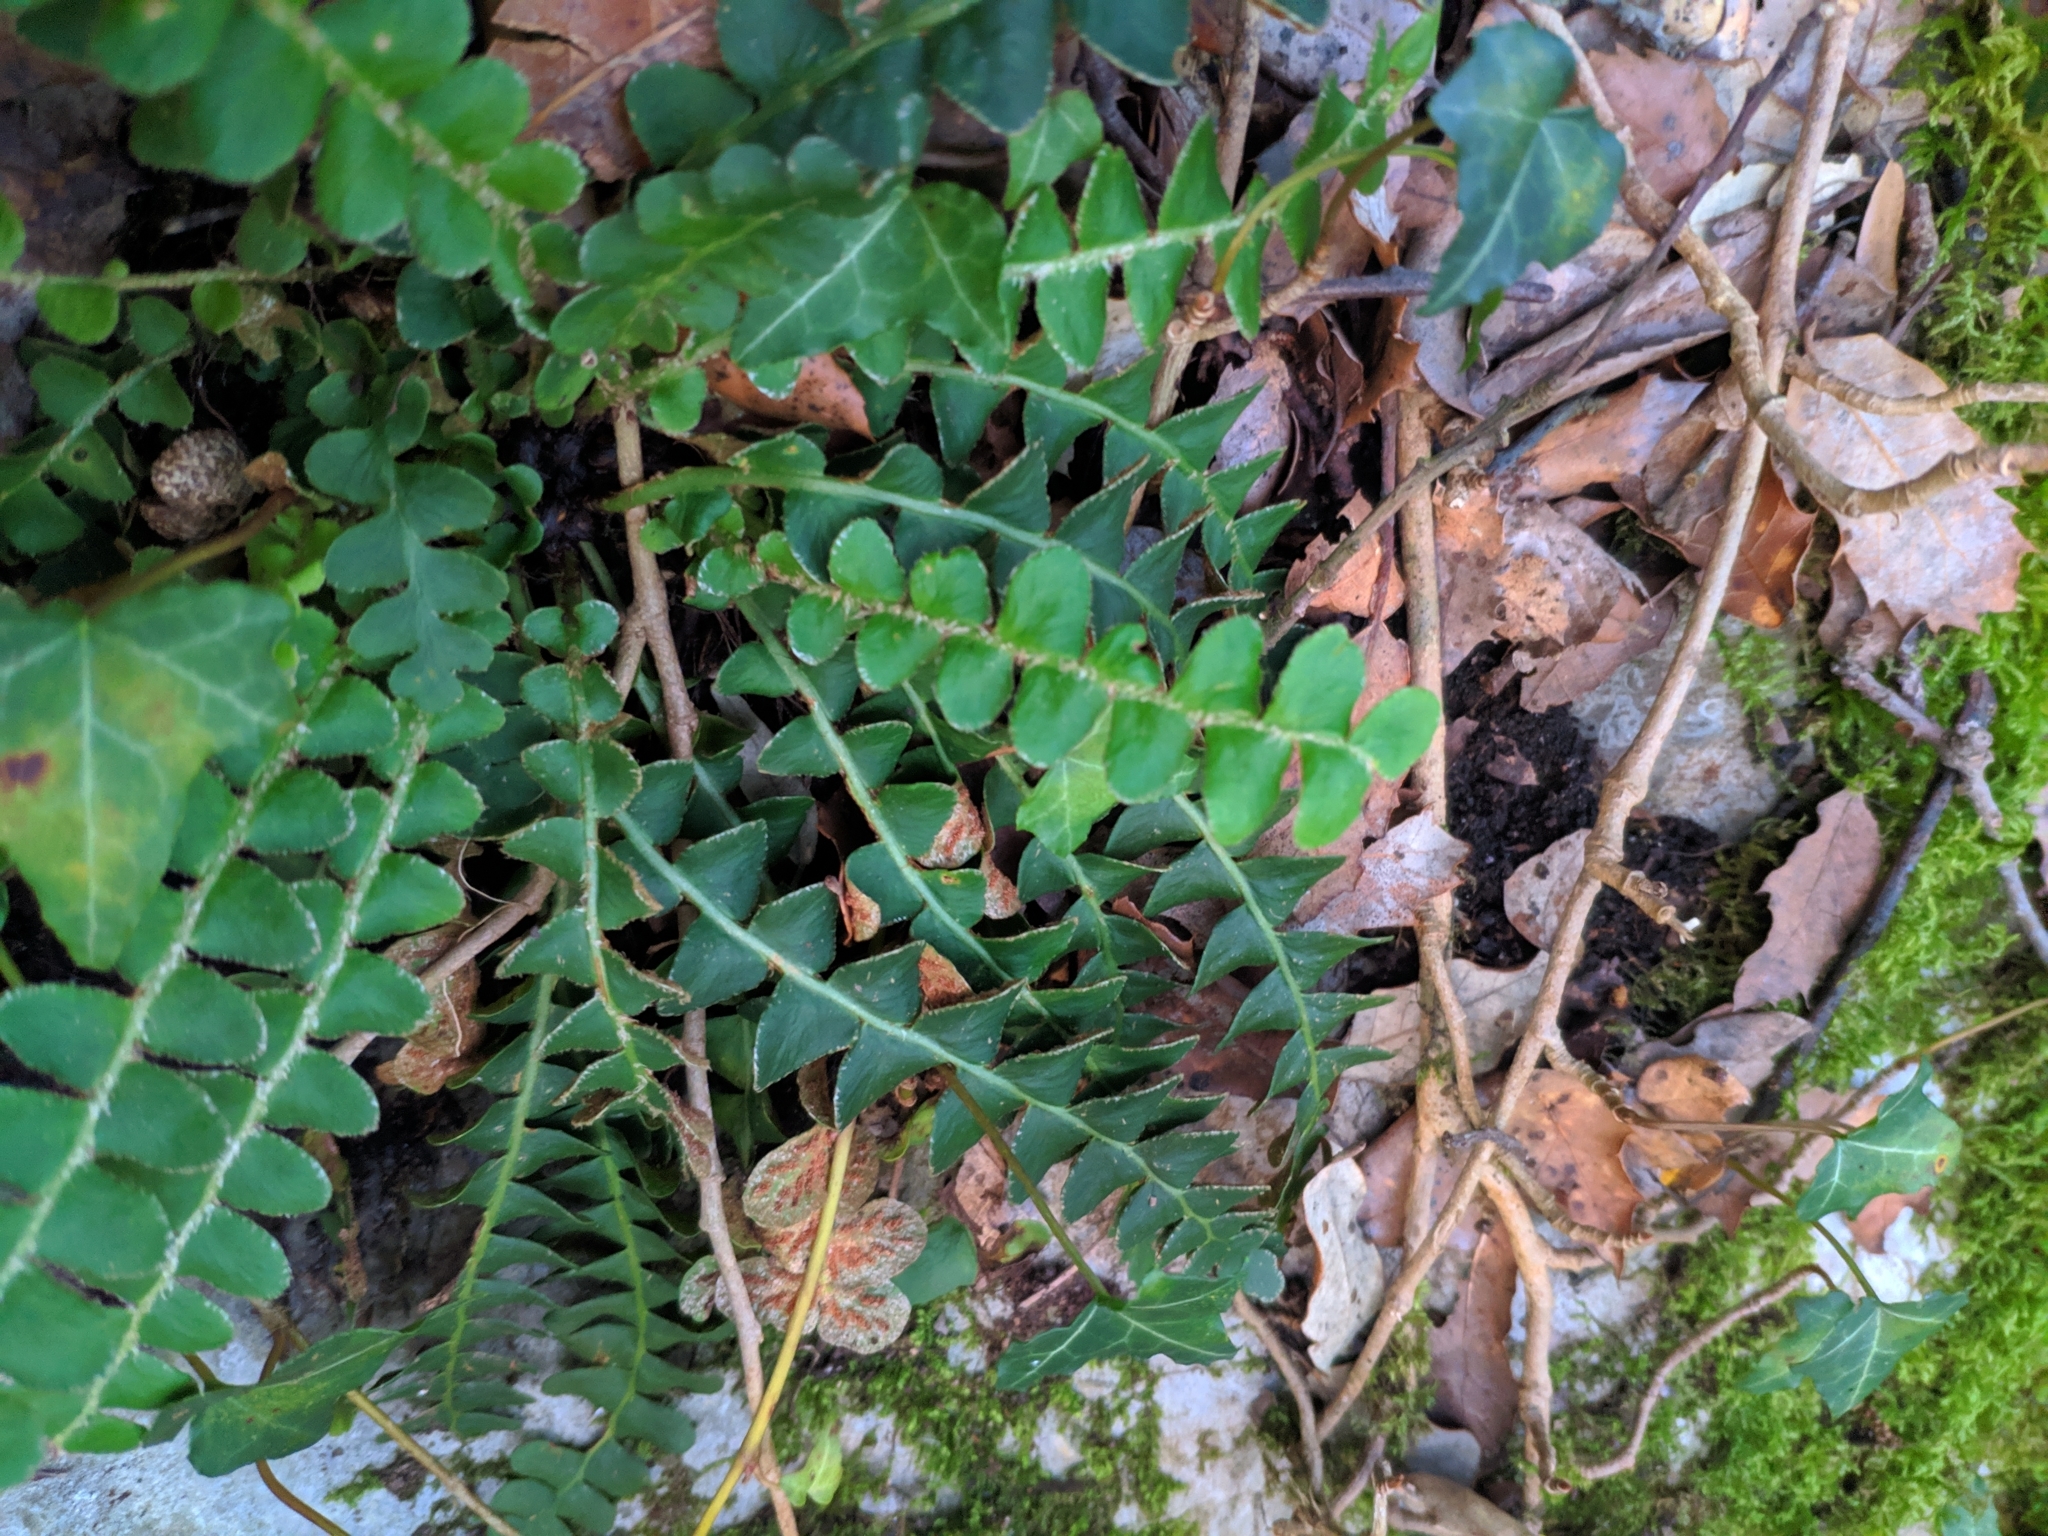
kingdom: Plantae
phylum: Tracheophyta
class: Polypodiopsida
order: Polypodiales
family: Aspleniaceae
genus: Asplenium
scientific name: Asplenium ceterach
